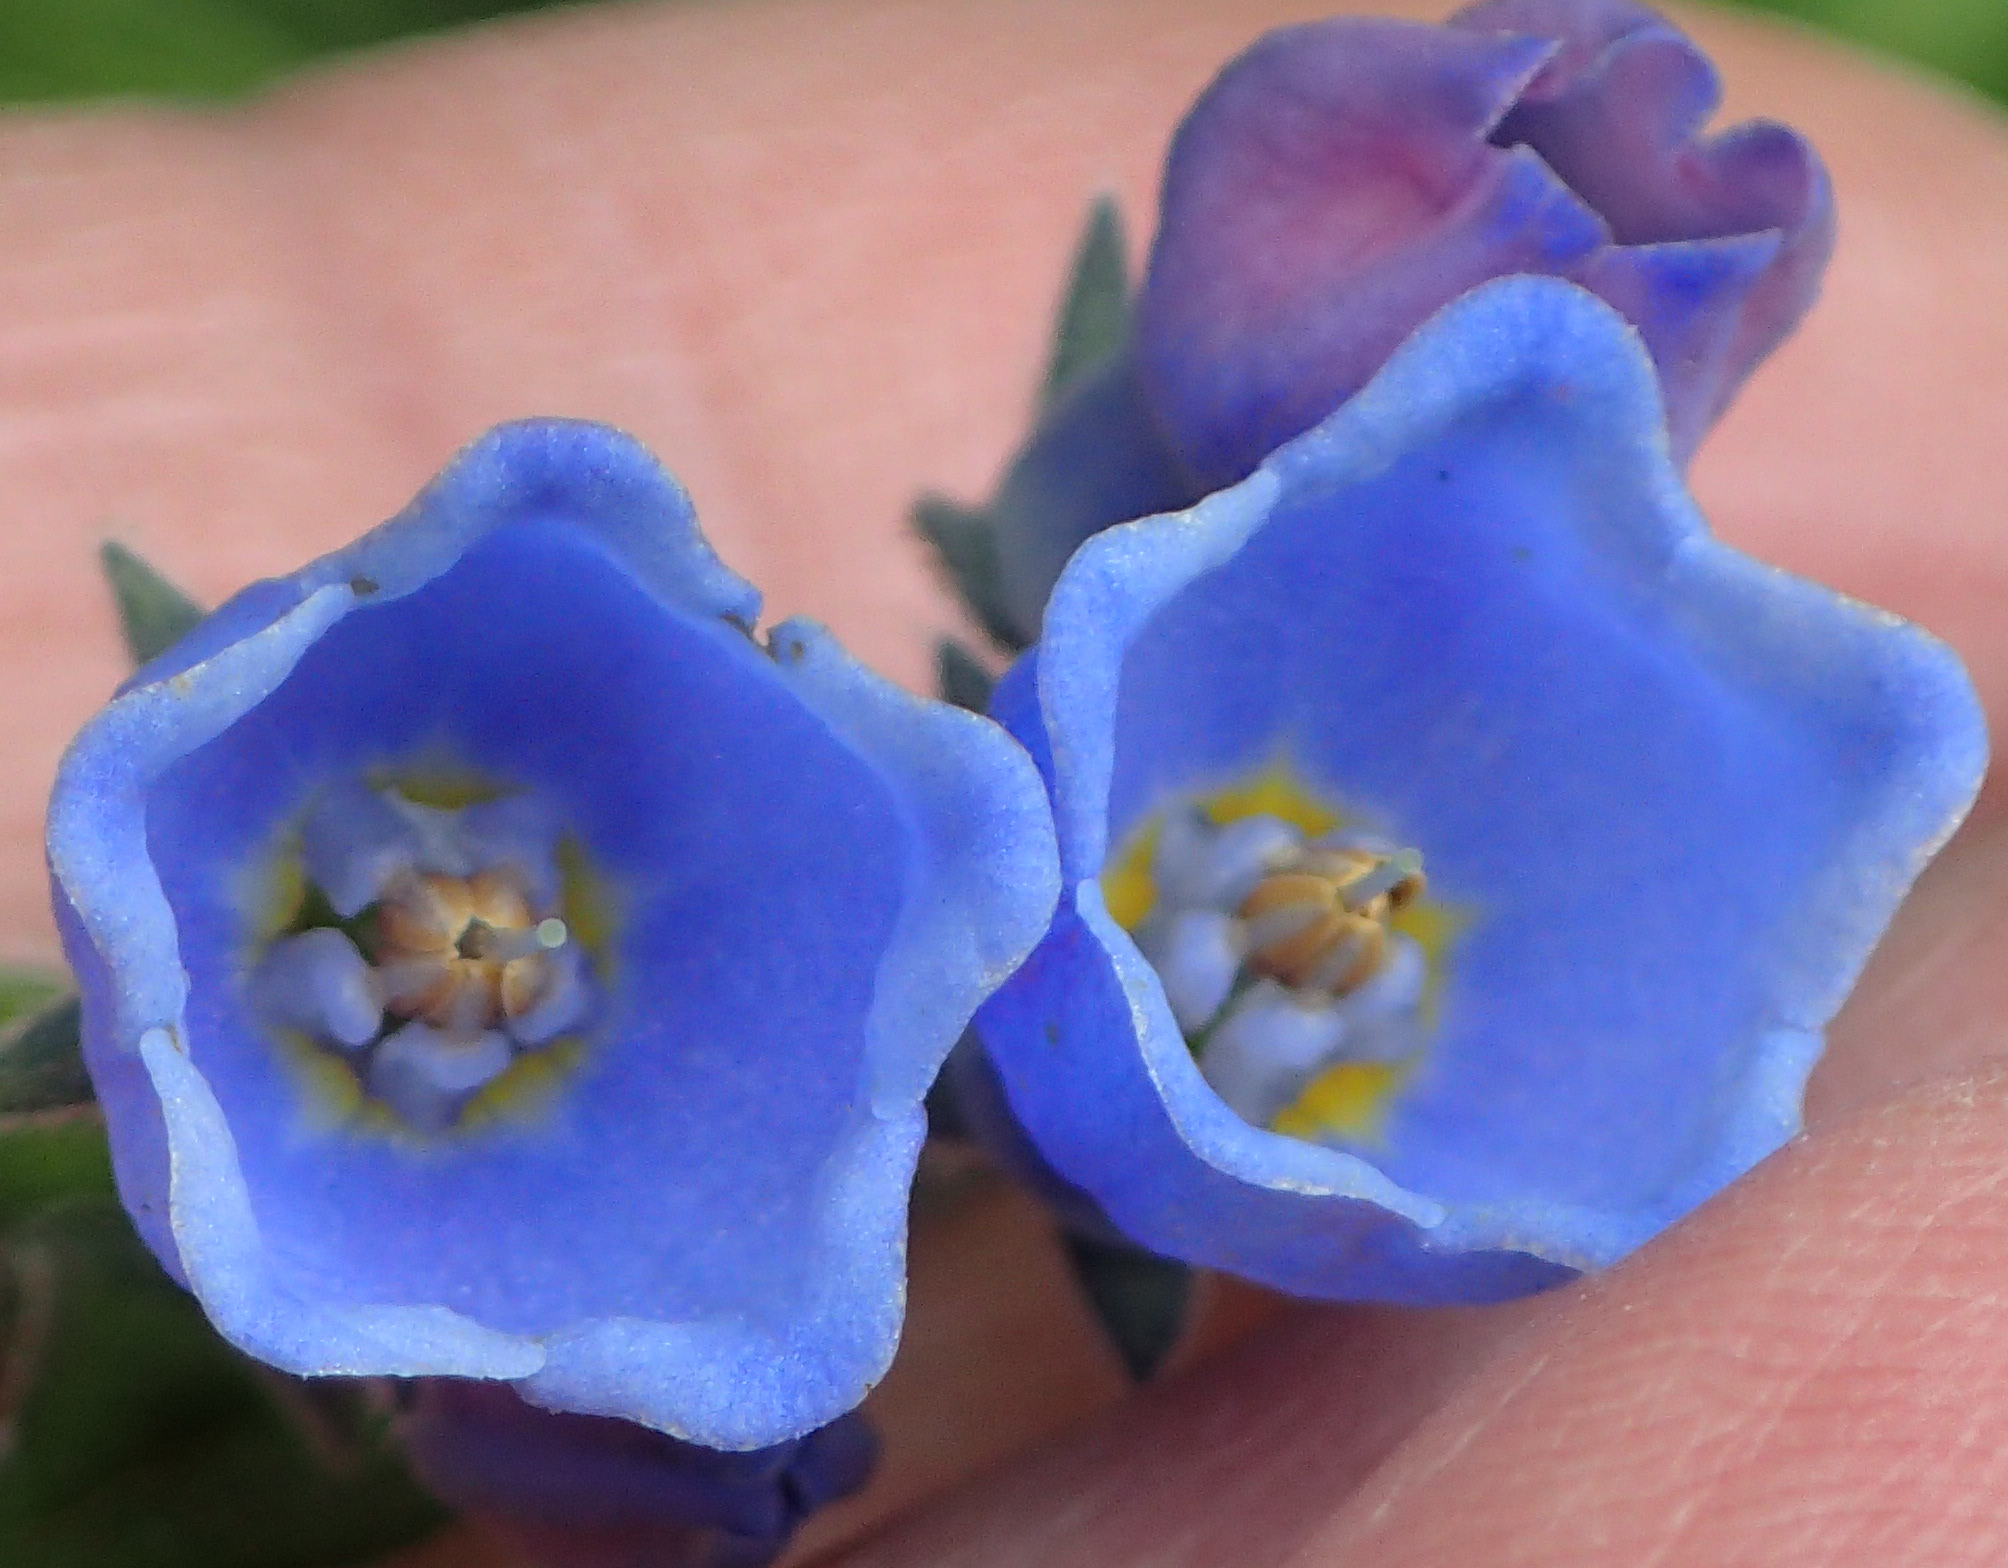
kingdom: Plantae
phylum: Tracheophyta
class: Magnoliopsida
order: Boraginales
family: Boraginaceae
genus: Mertensia
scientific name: Mertensia paniculata
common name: Panicled bluebells
